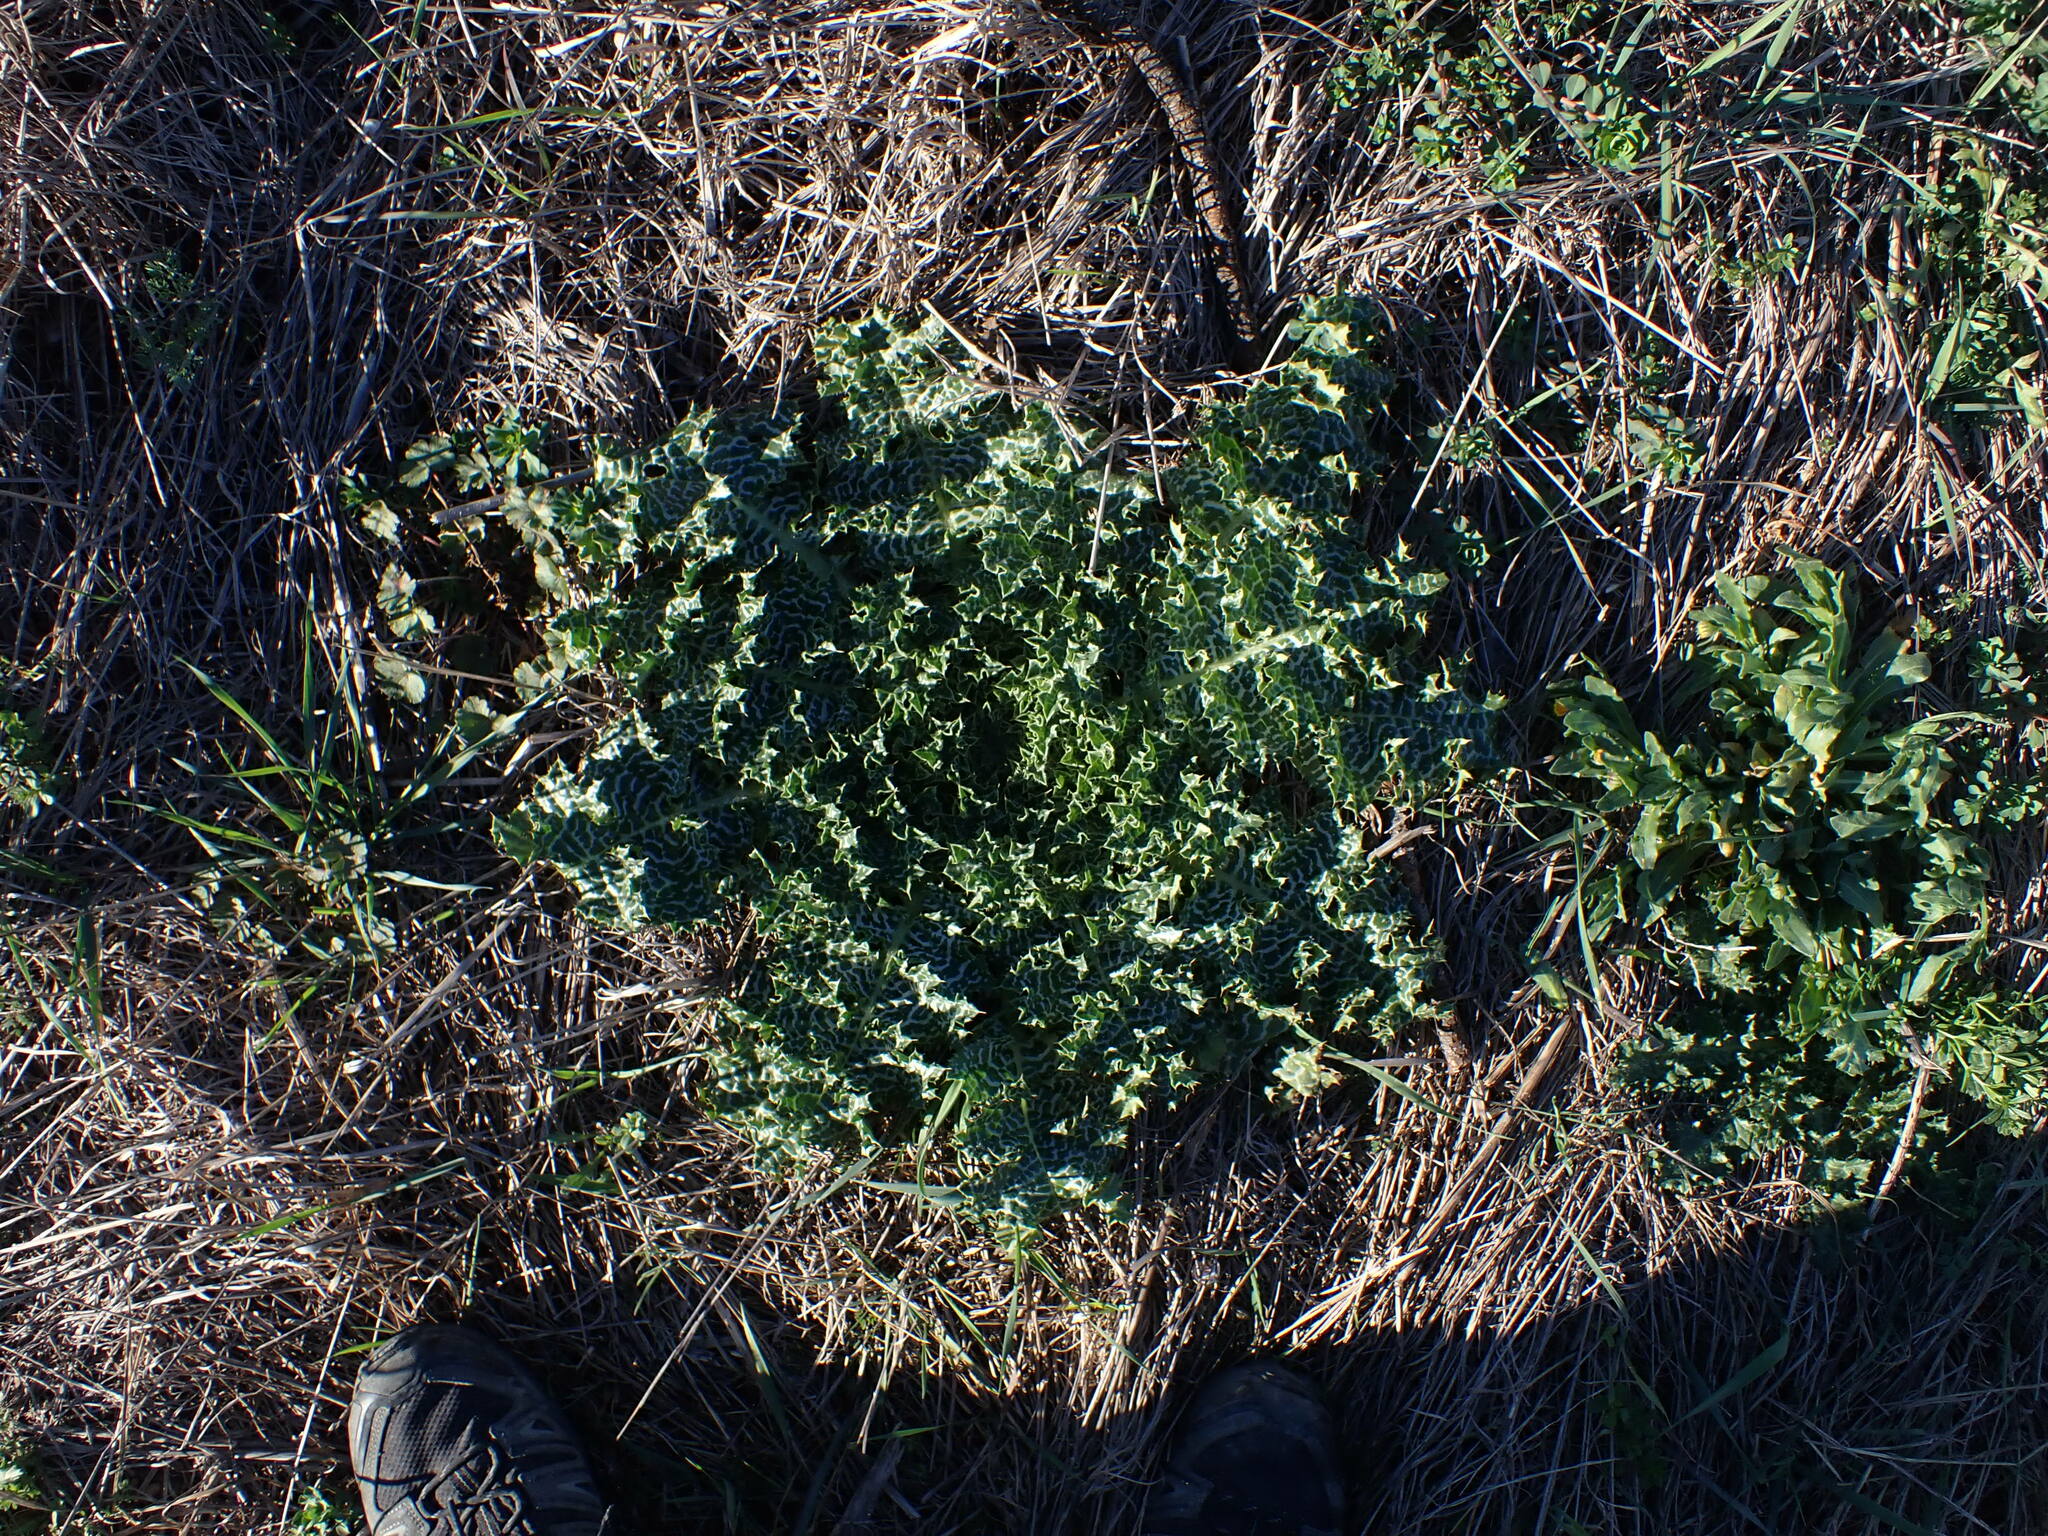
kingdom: Plantae
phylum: Tracheophyta
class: Magnoliopsida
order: Asterales
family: Asteraceae
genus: Silybum
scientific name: Silybum marianum
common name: Milk thistle
